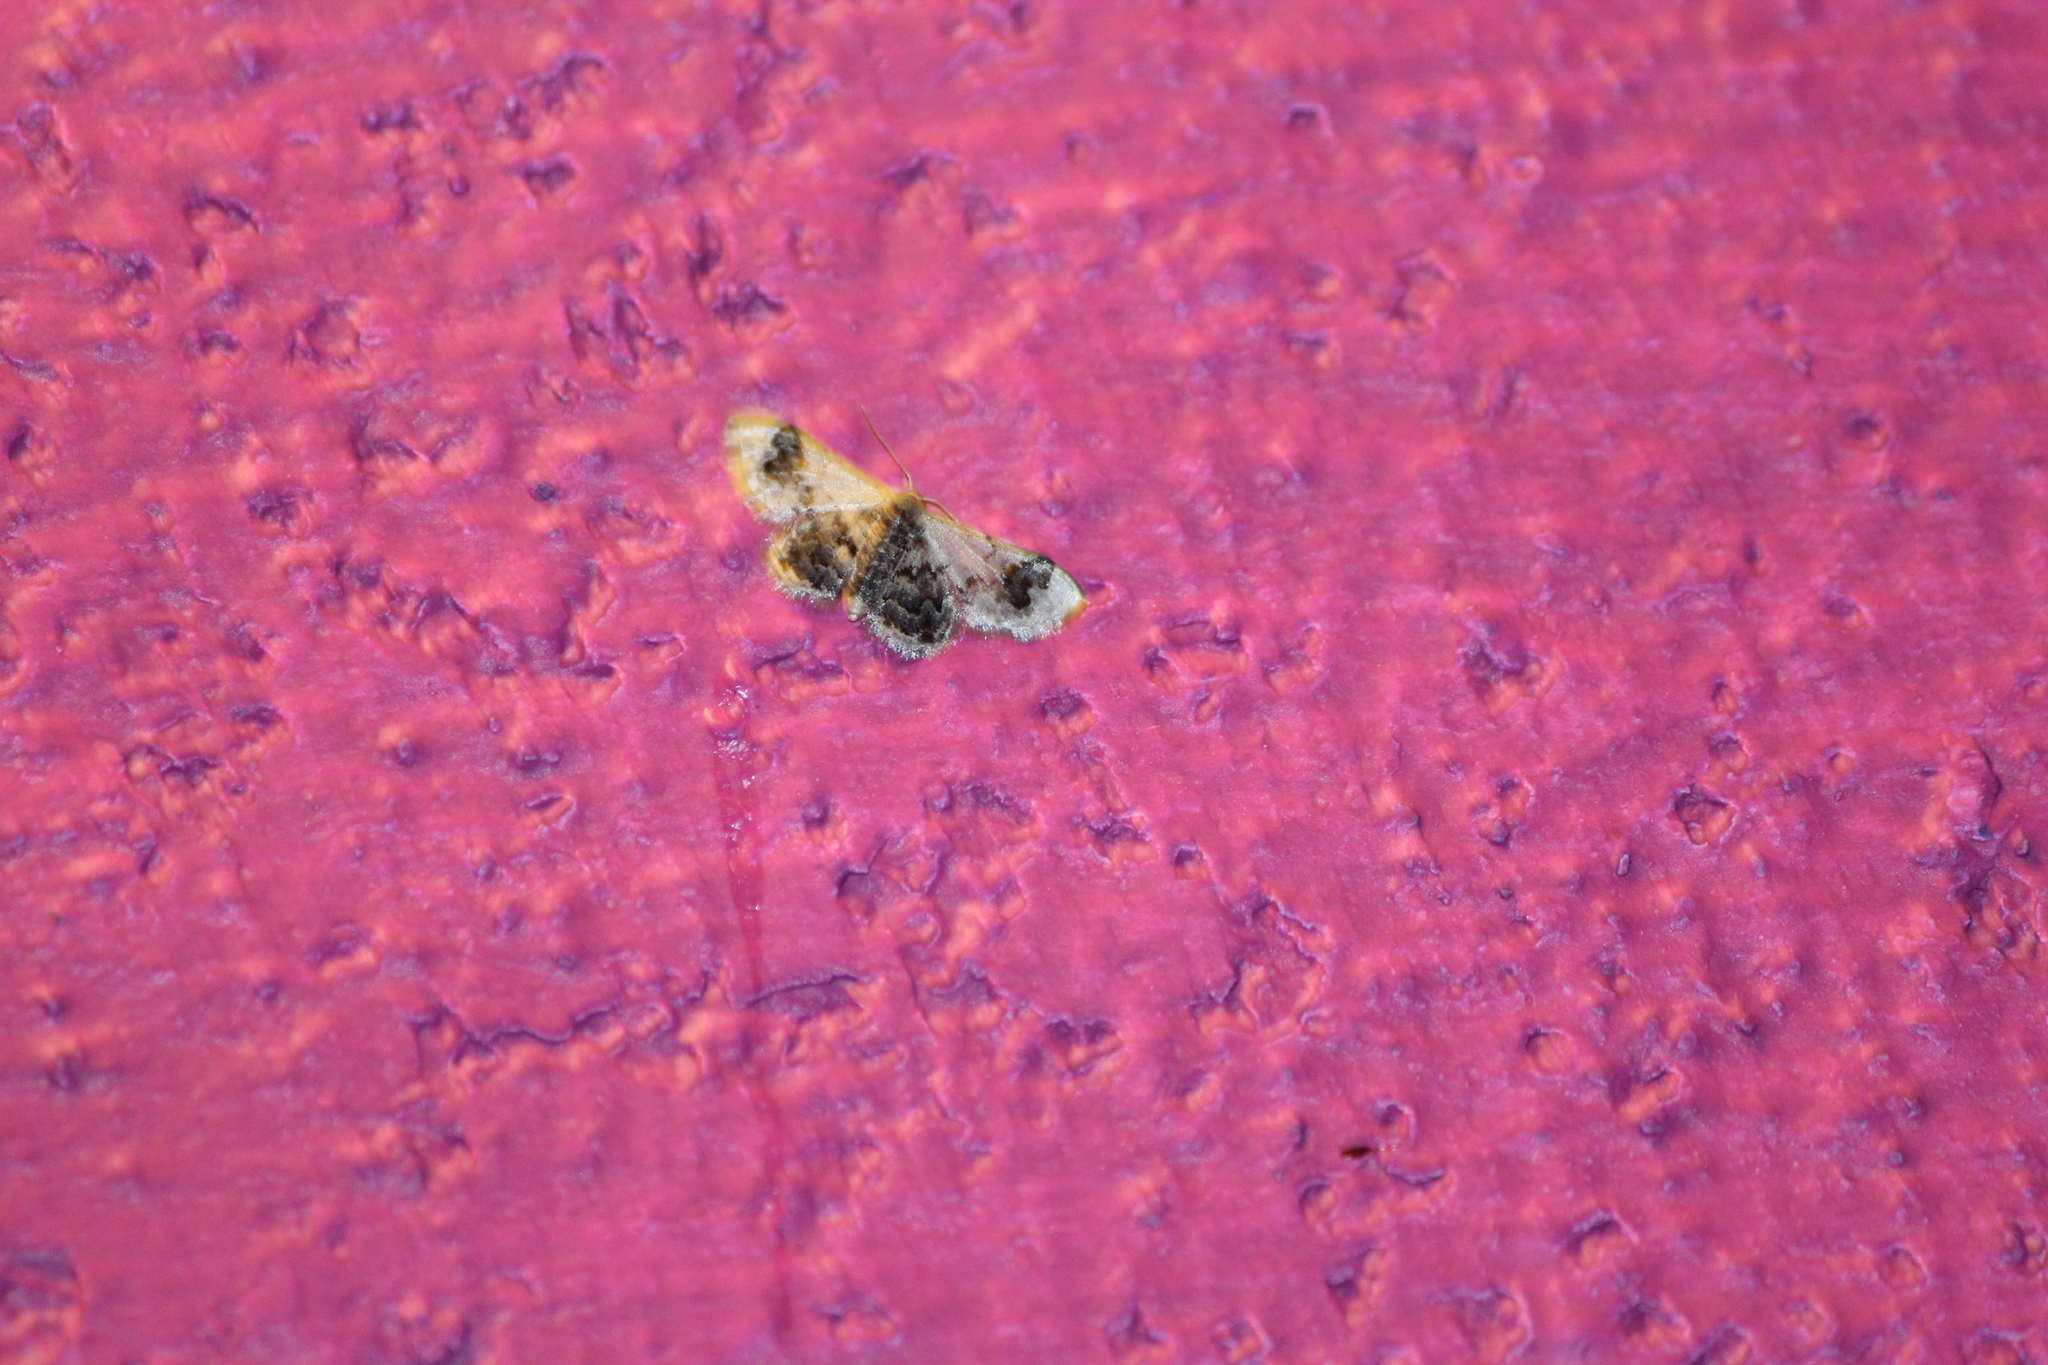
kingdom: Animalia
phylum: Arthropoda
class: Insecta
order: Lepidoptera
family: Geometridae
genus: Idaea
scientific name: Idaea asceta
